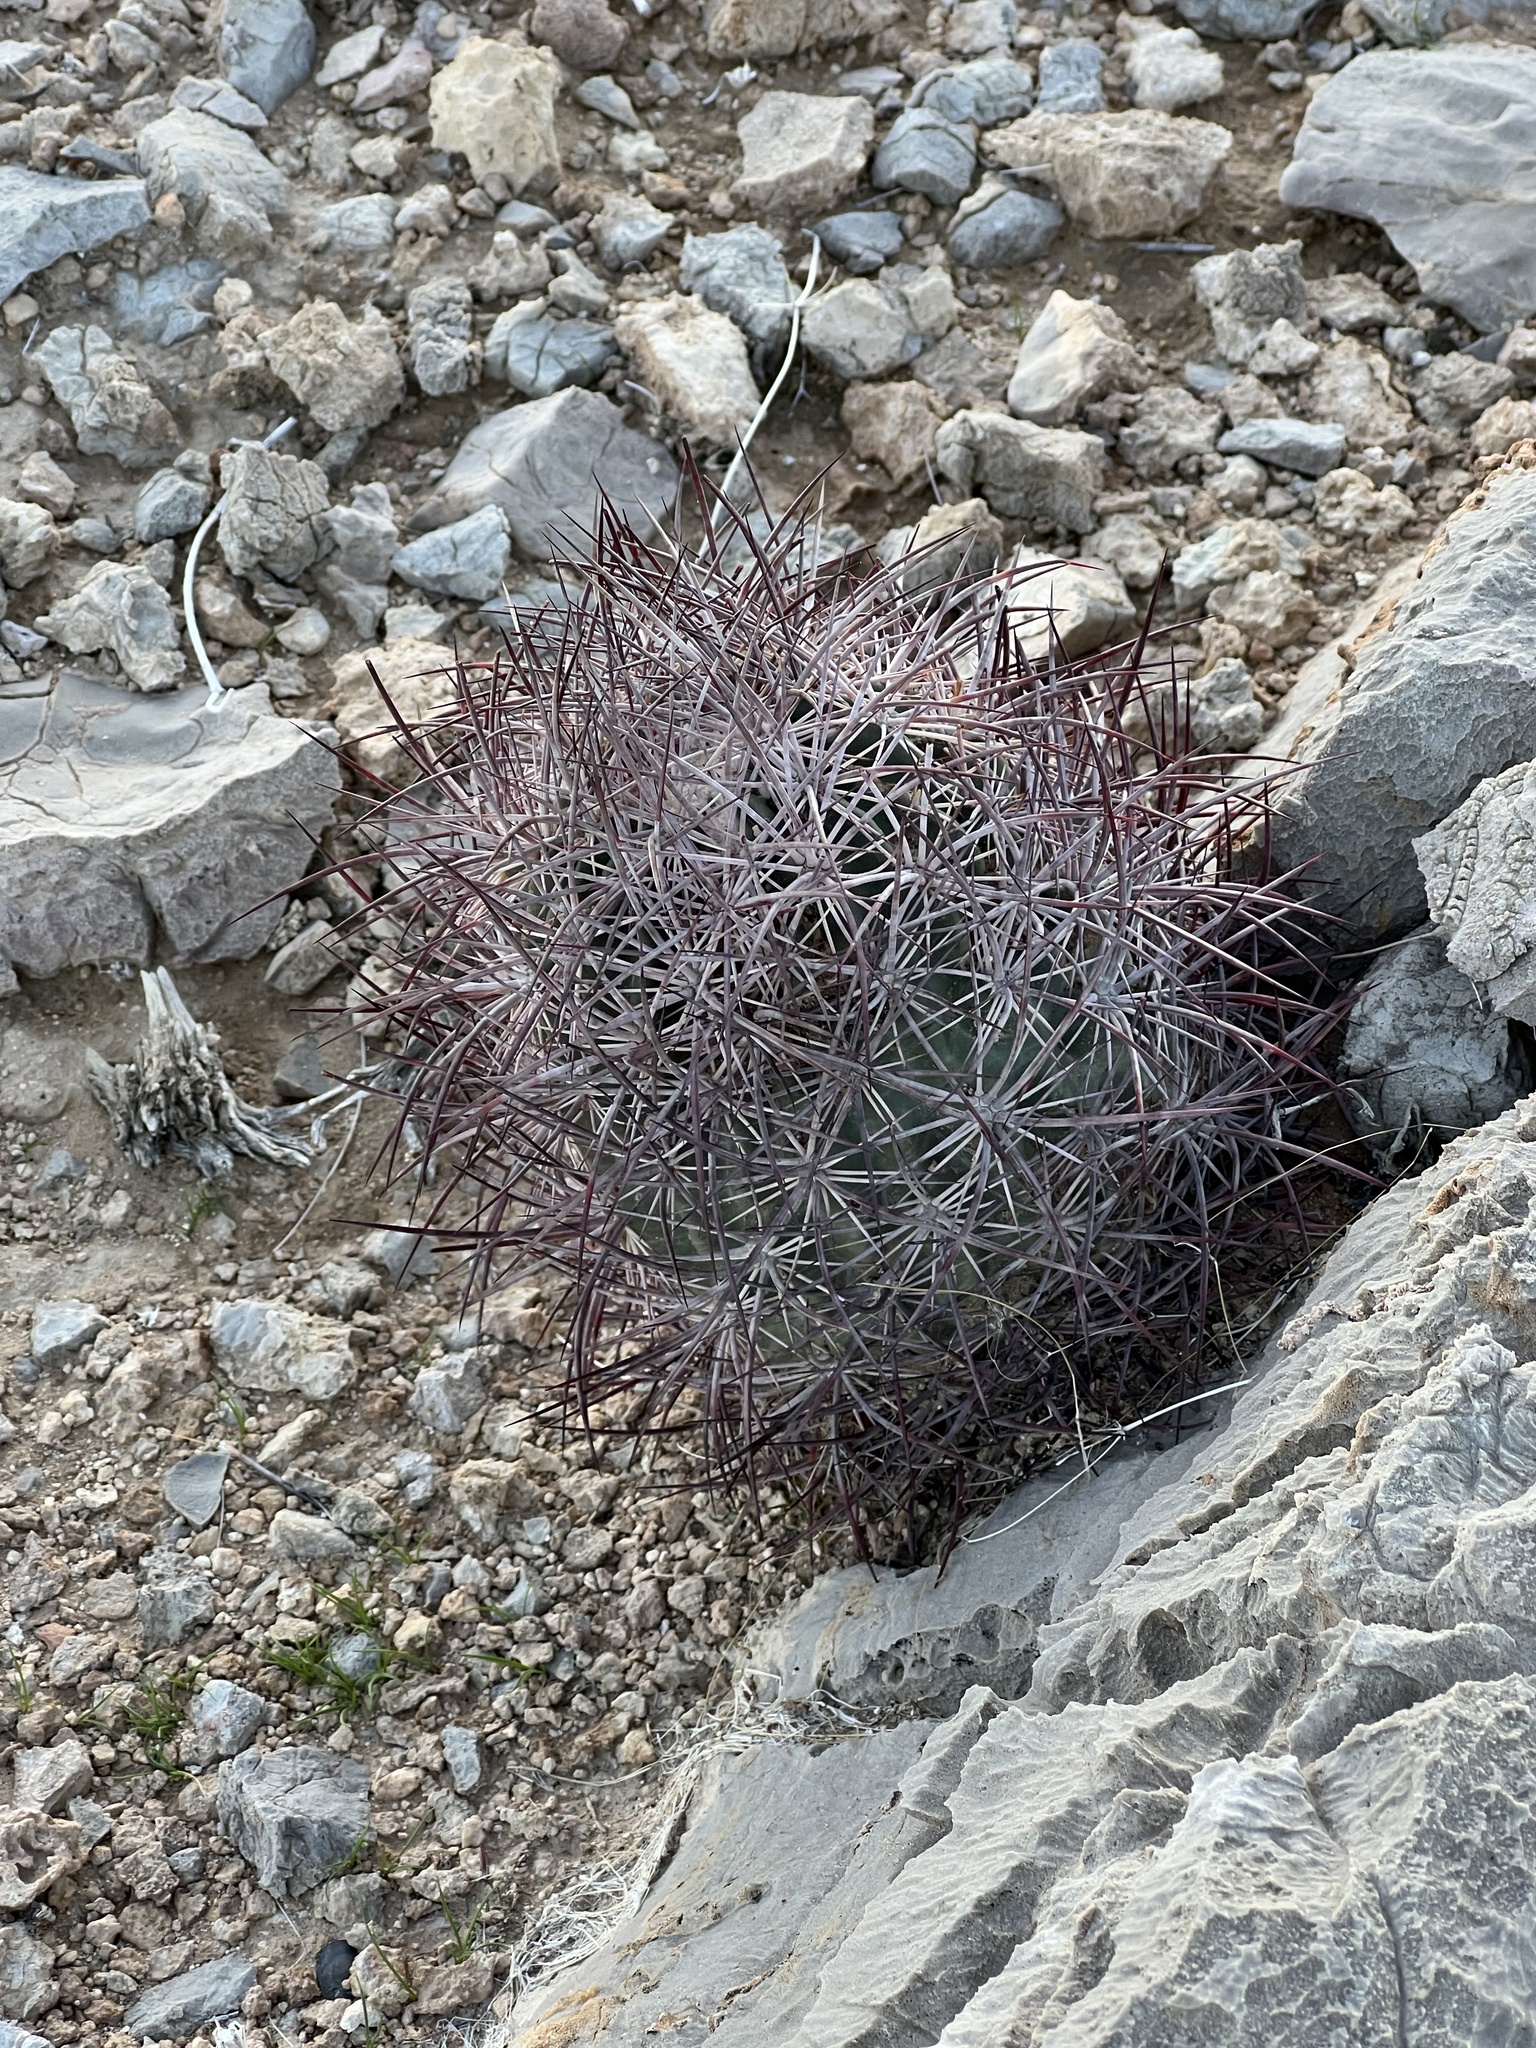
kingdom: Plantae
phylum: Tracheophyta
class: Magnoliopsida
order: Caryophyllales
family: Cactaceae
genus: Sclerocactus
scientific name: Sclerocactus johnsonii
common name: Eight-spine fishhook cactus
